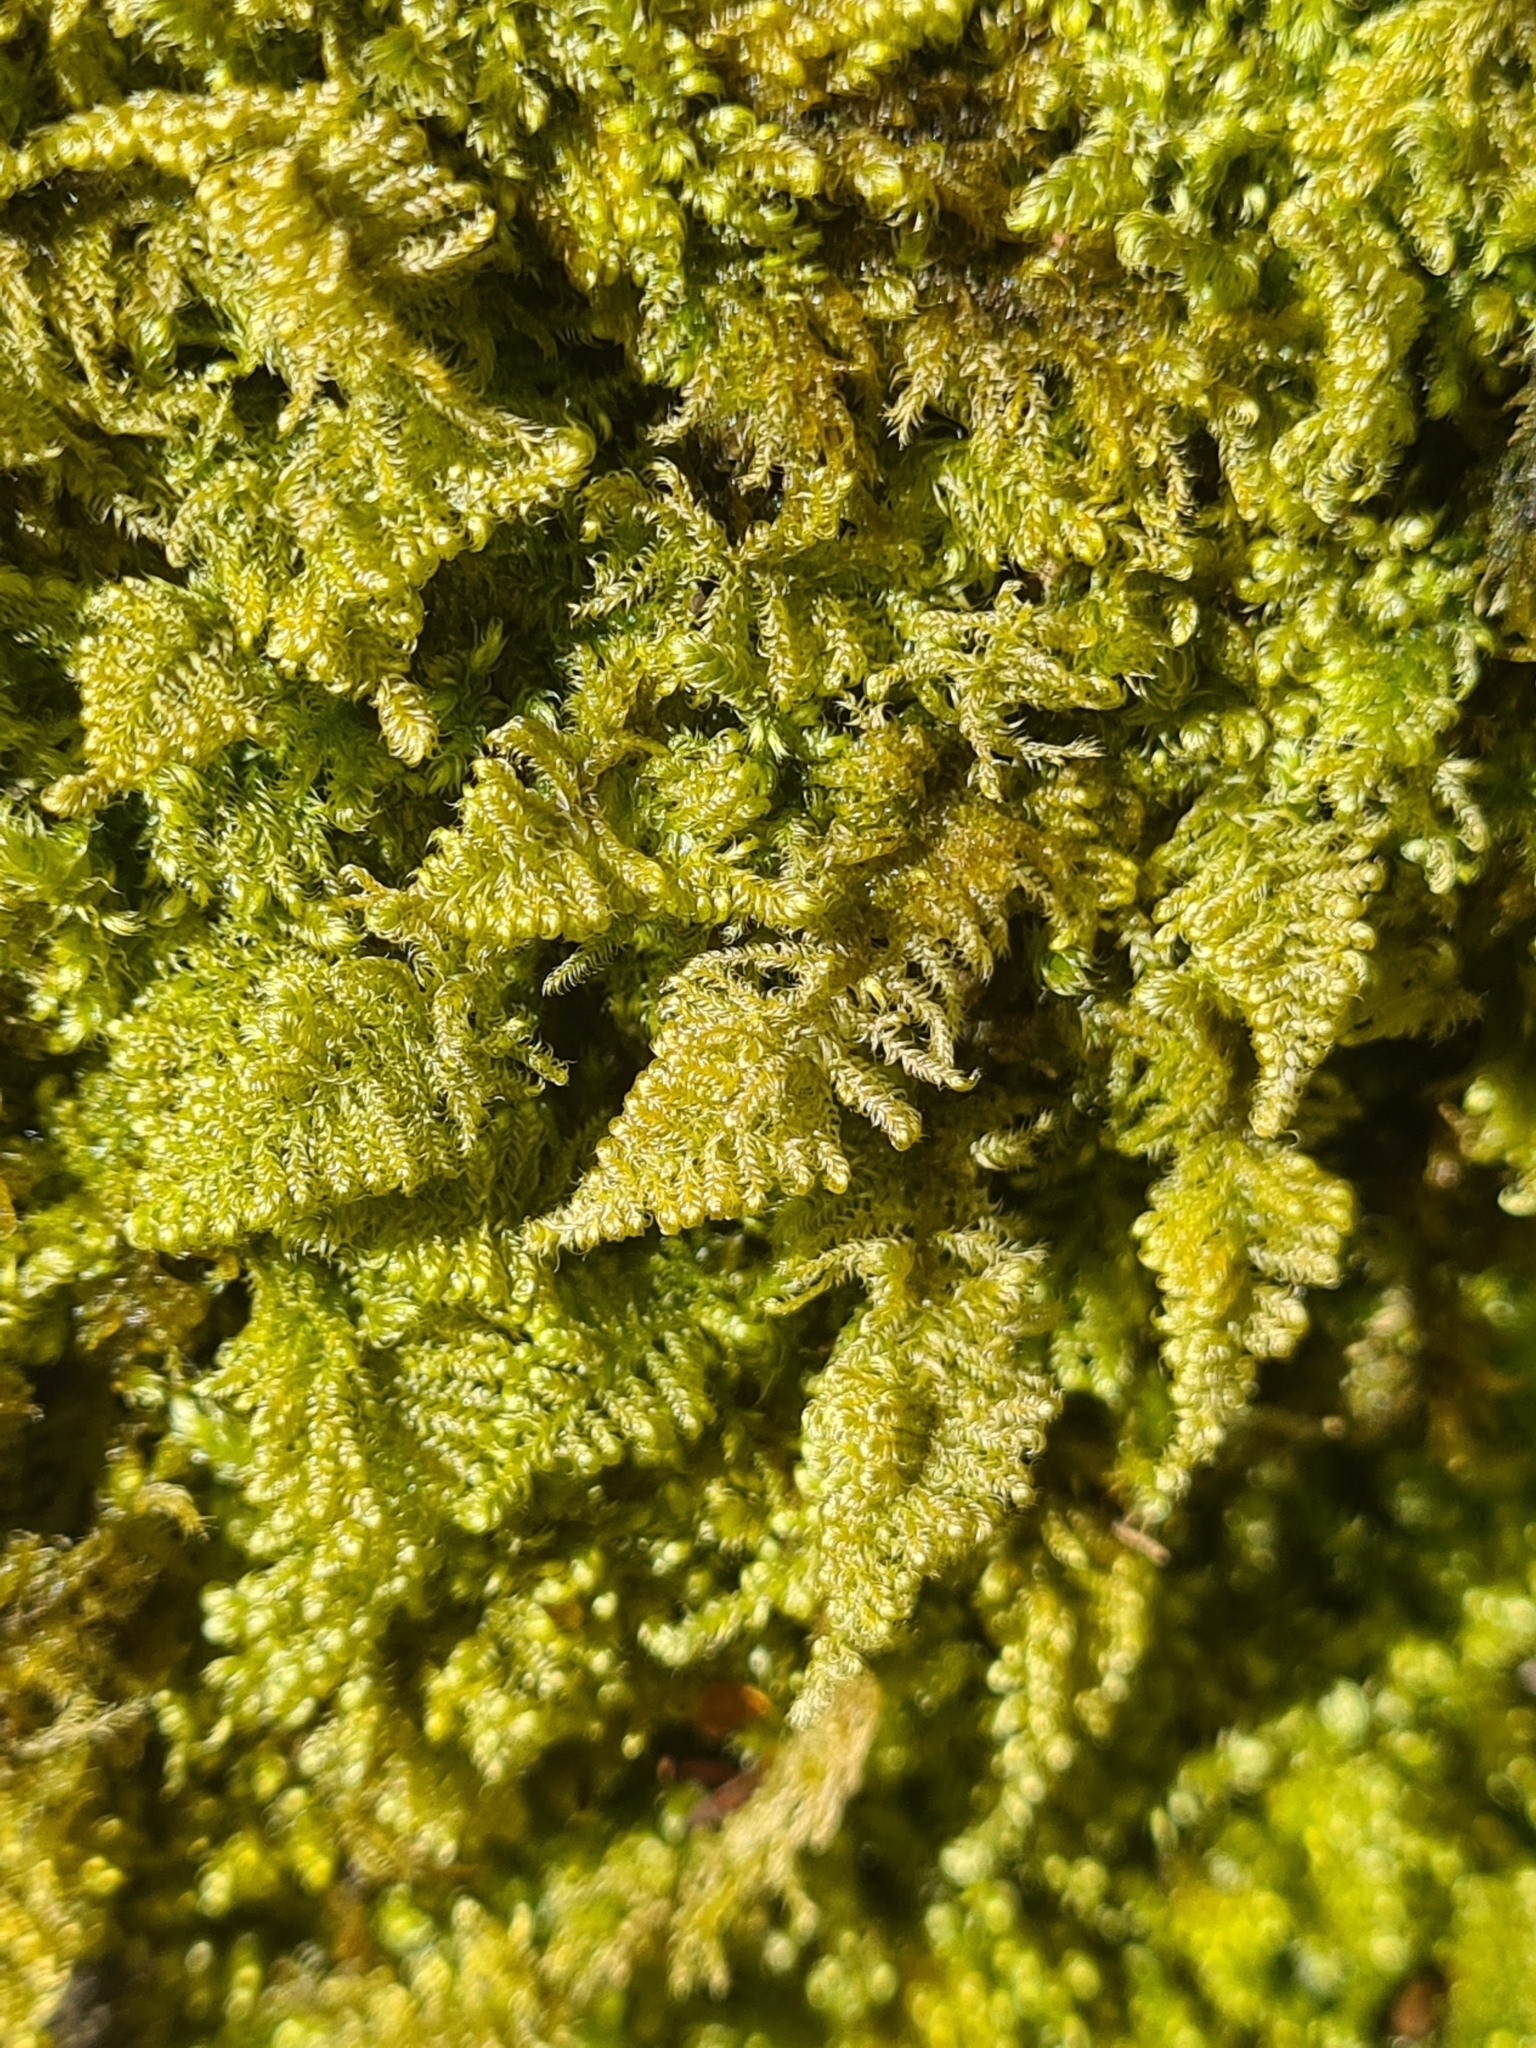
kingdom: Plantae
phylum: Bryophyta
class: Bryopsida
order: Hypnales
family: Myuriaceae
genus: Ctenidium
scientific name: Ctenidium molluscum
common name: Chalk comb-moss
